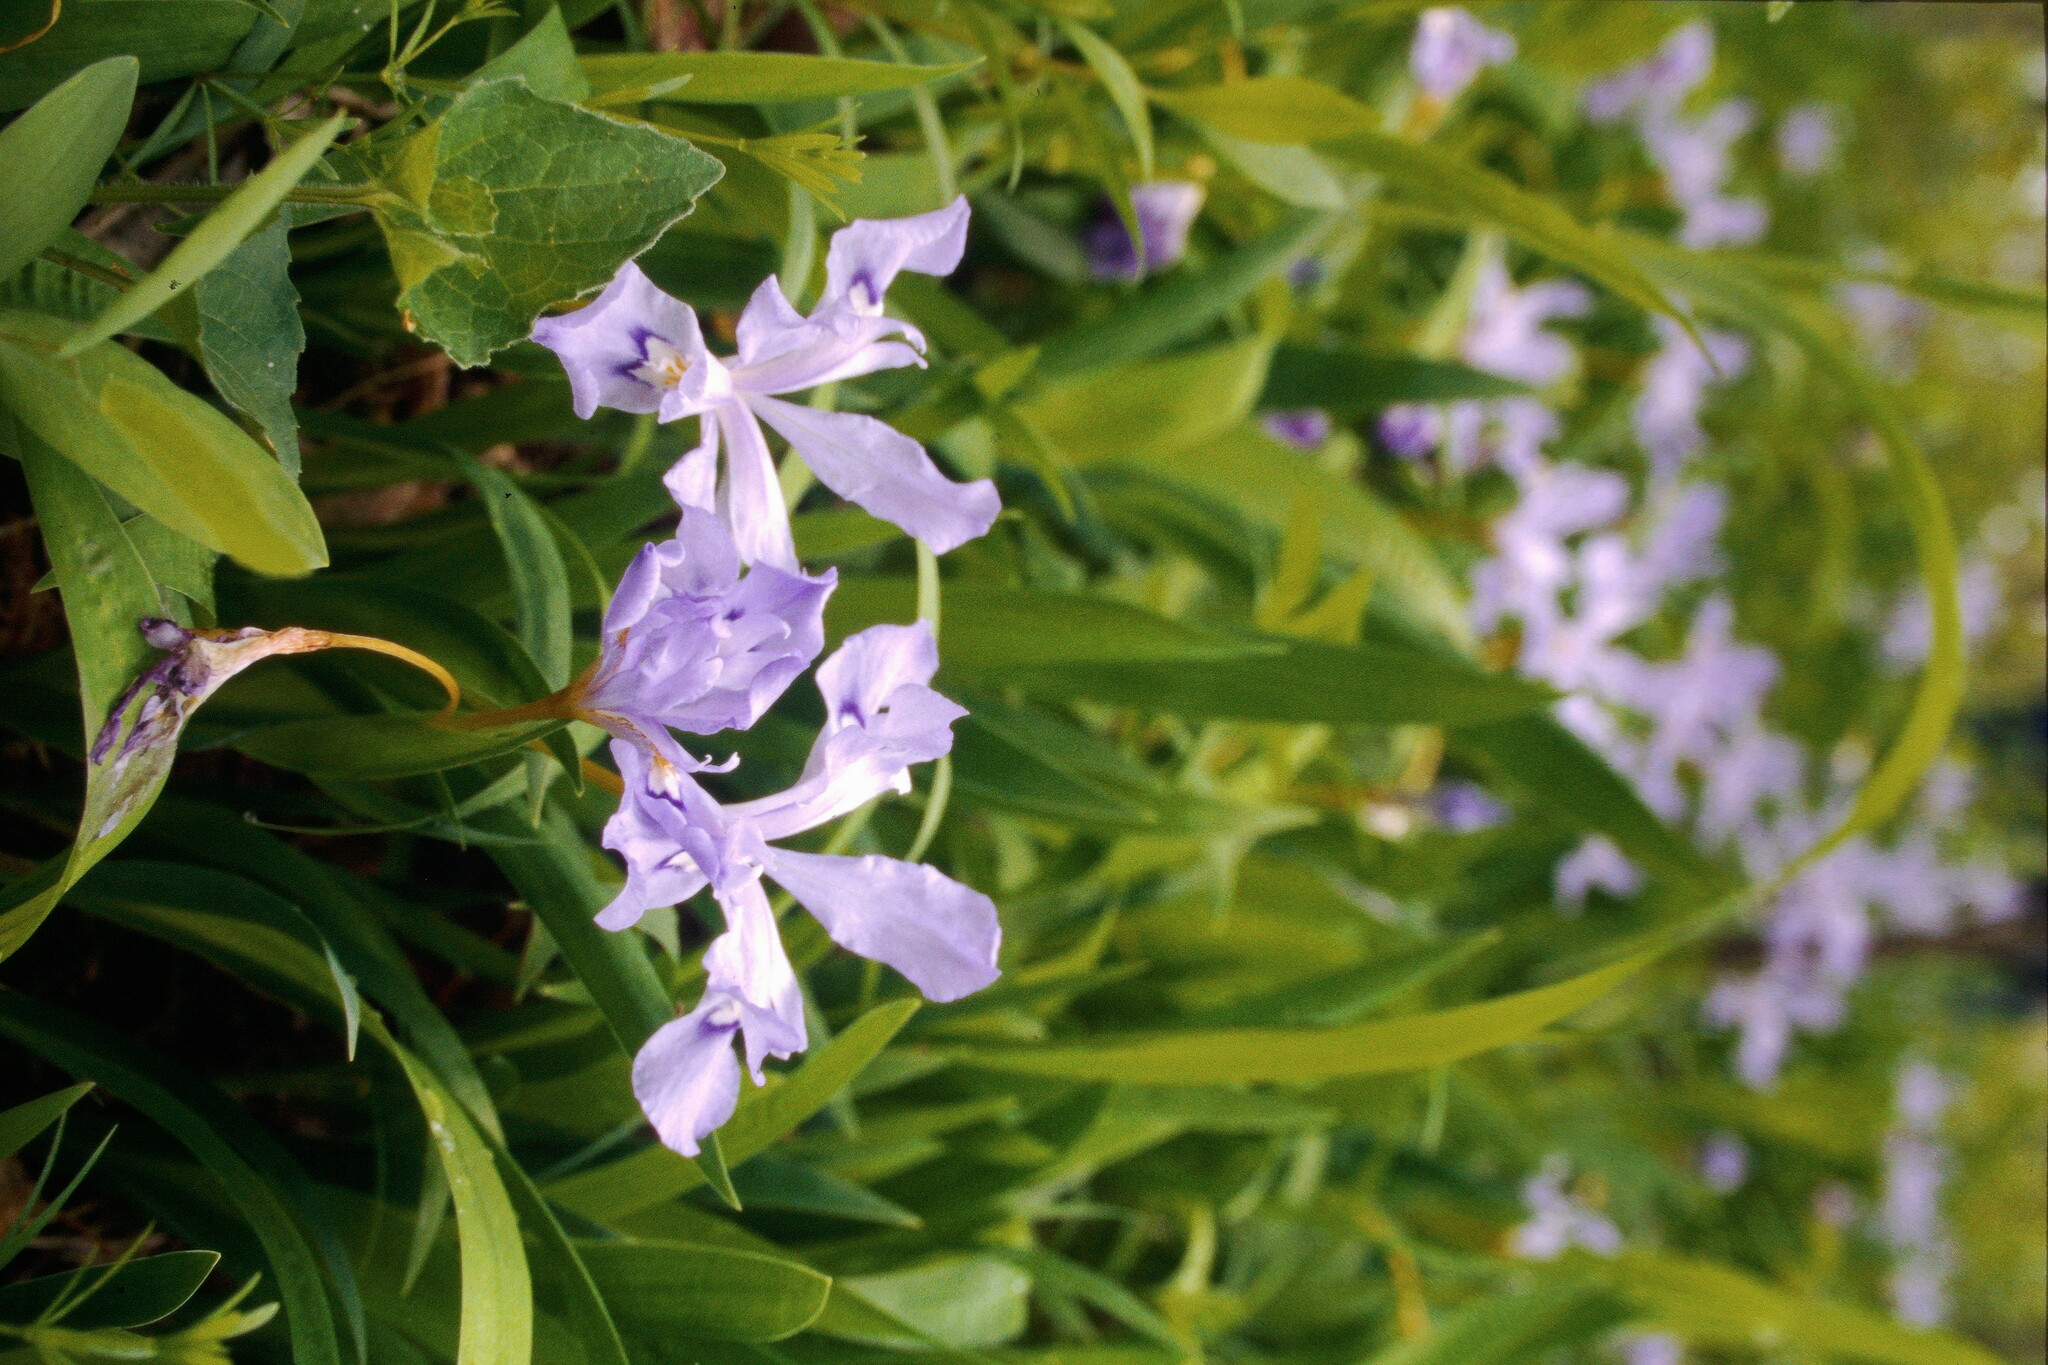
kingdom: Plantae
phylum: Tracheophyta
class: Liliopsida
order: Asparagales
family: Iridaceae
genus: Iris
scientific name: Iris cristata
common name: Crested iris
